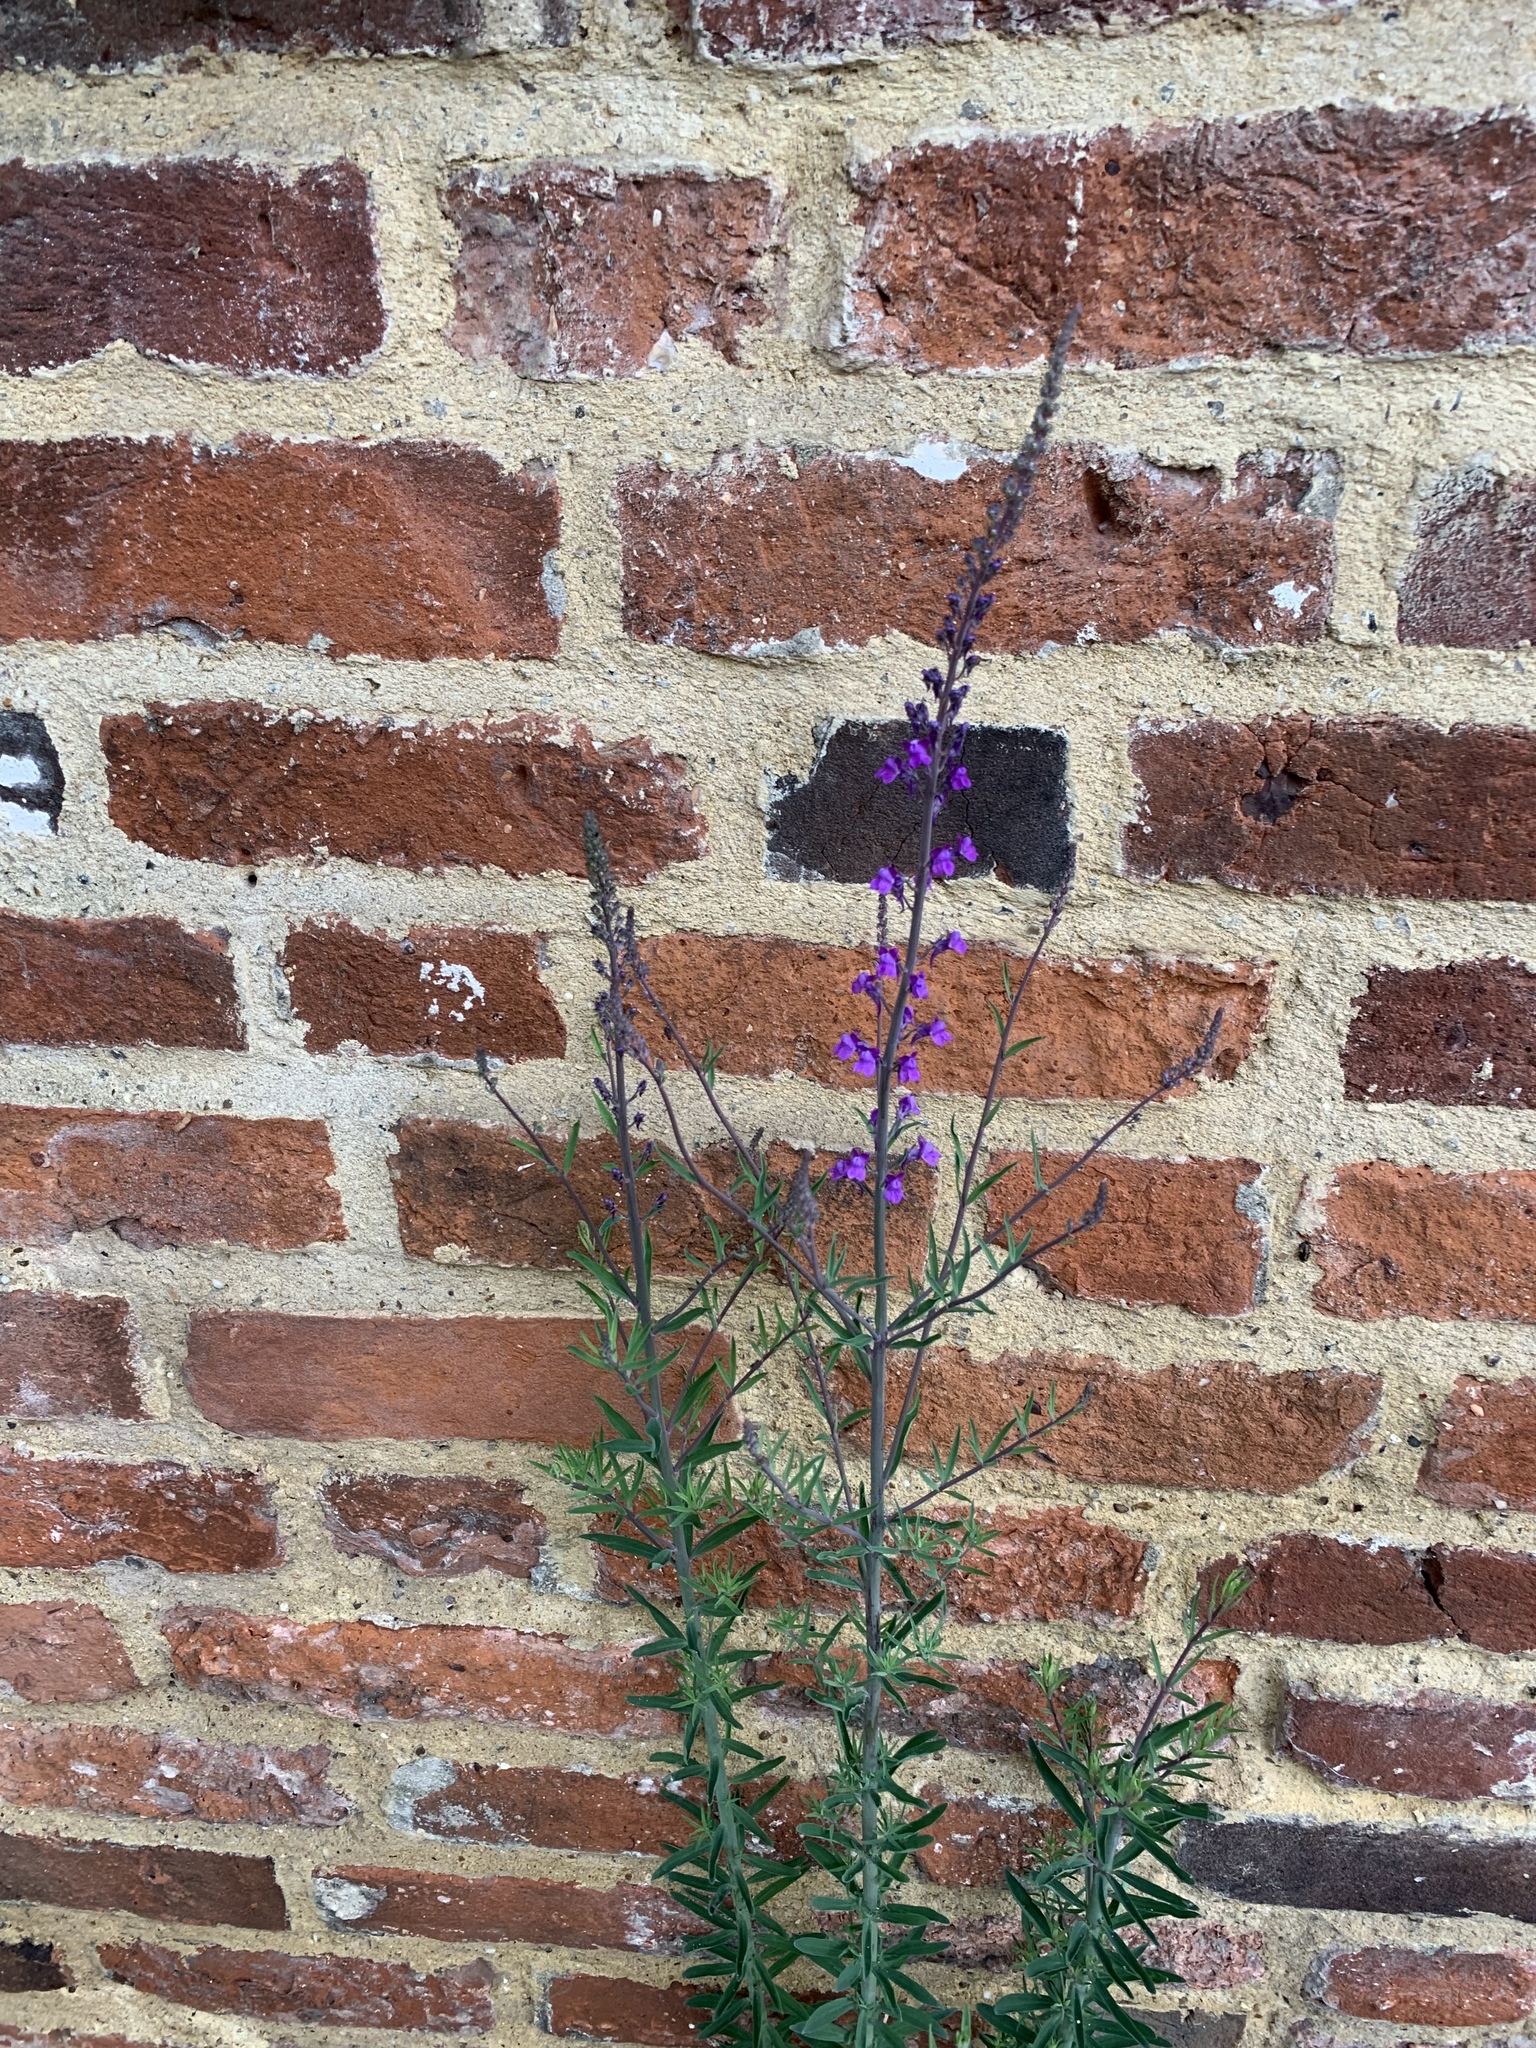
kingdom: Plantae
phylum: Tracheophyta
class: Magnoliopsida
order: Lamiales
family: Plantaginaceae
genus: Linaria
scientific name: Linaria purpurea
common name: Purple toadflax
